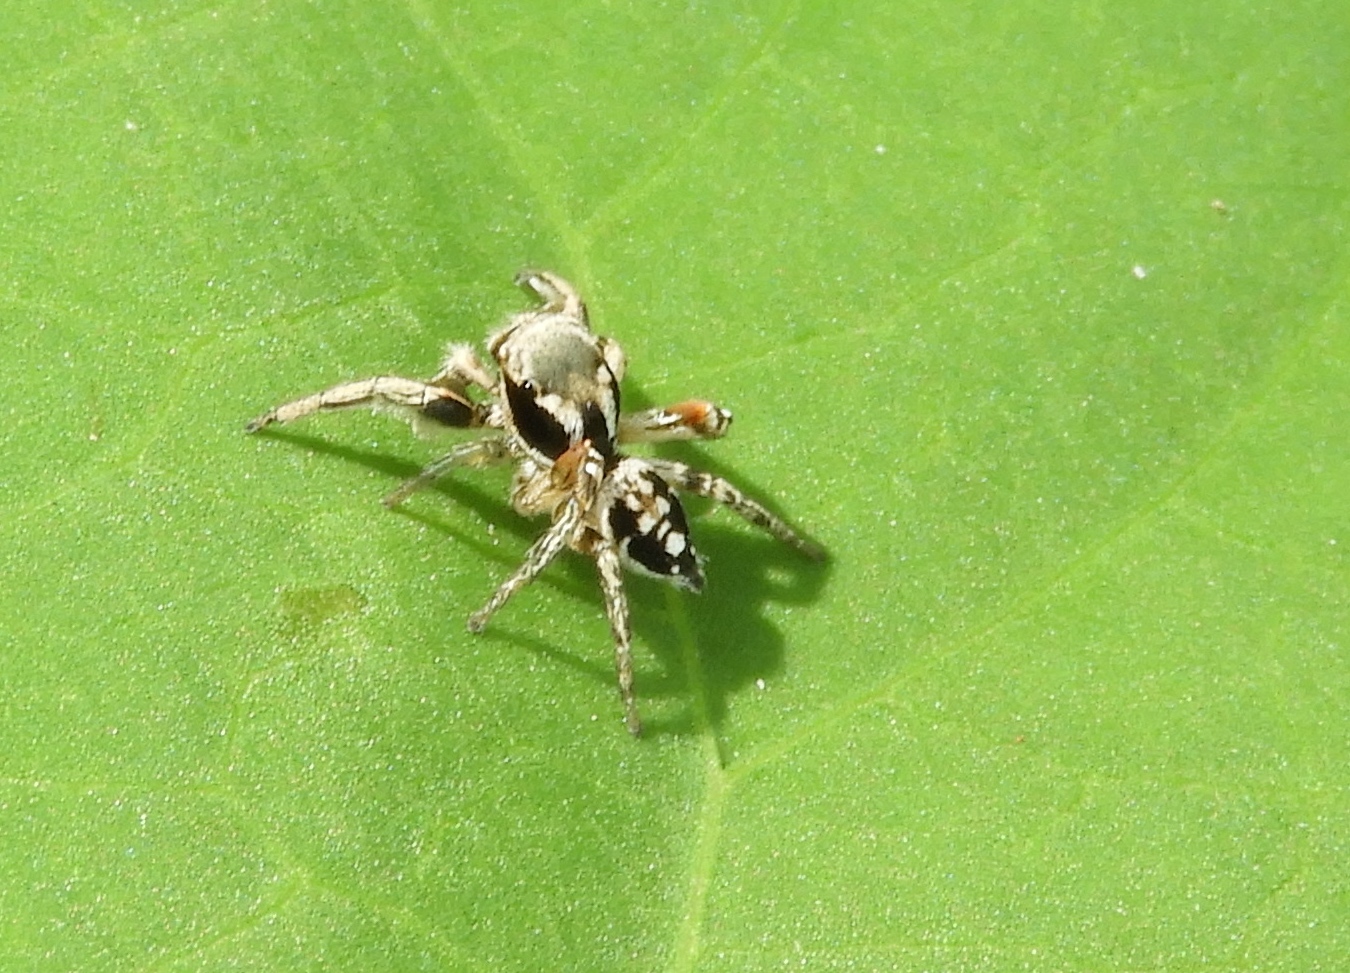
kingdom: Animalia
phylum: Arthropoda
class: Arachnida
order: Araneae
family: Salticidae
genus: Habronattus
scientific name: Habronattus
